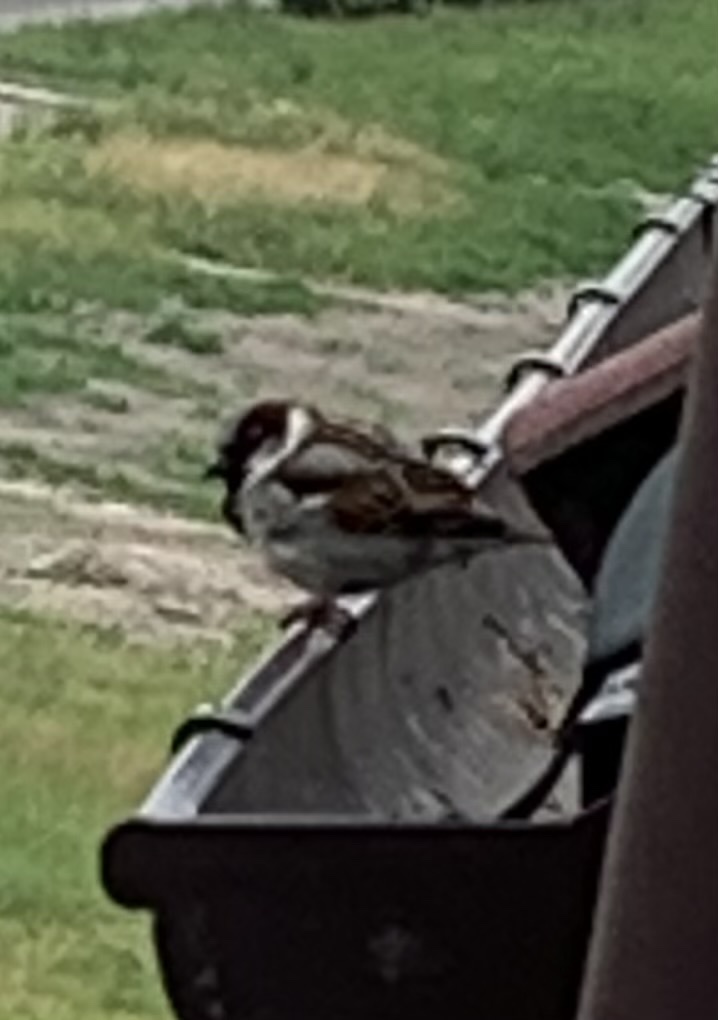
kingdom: Animalia
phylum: Chordata
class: Aves
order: Passeriformes
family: Passeridae
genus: Passer
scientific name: Passer domesticus
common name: House sparrow
